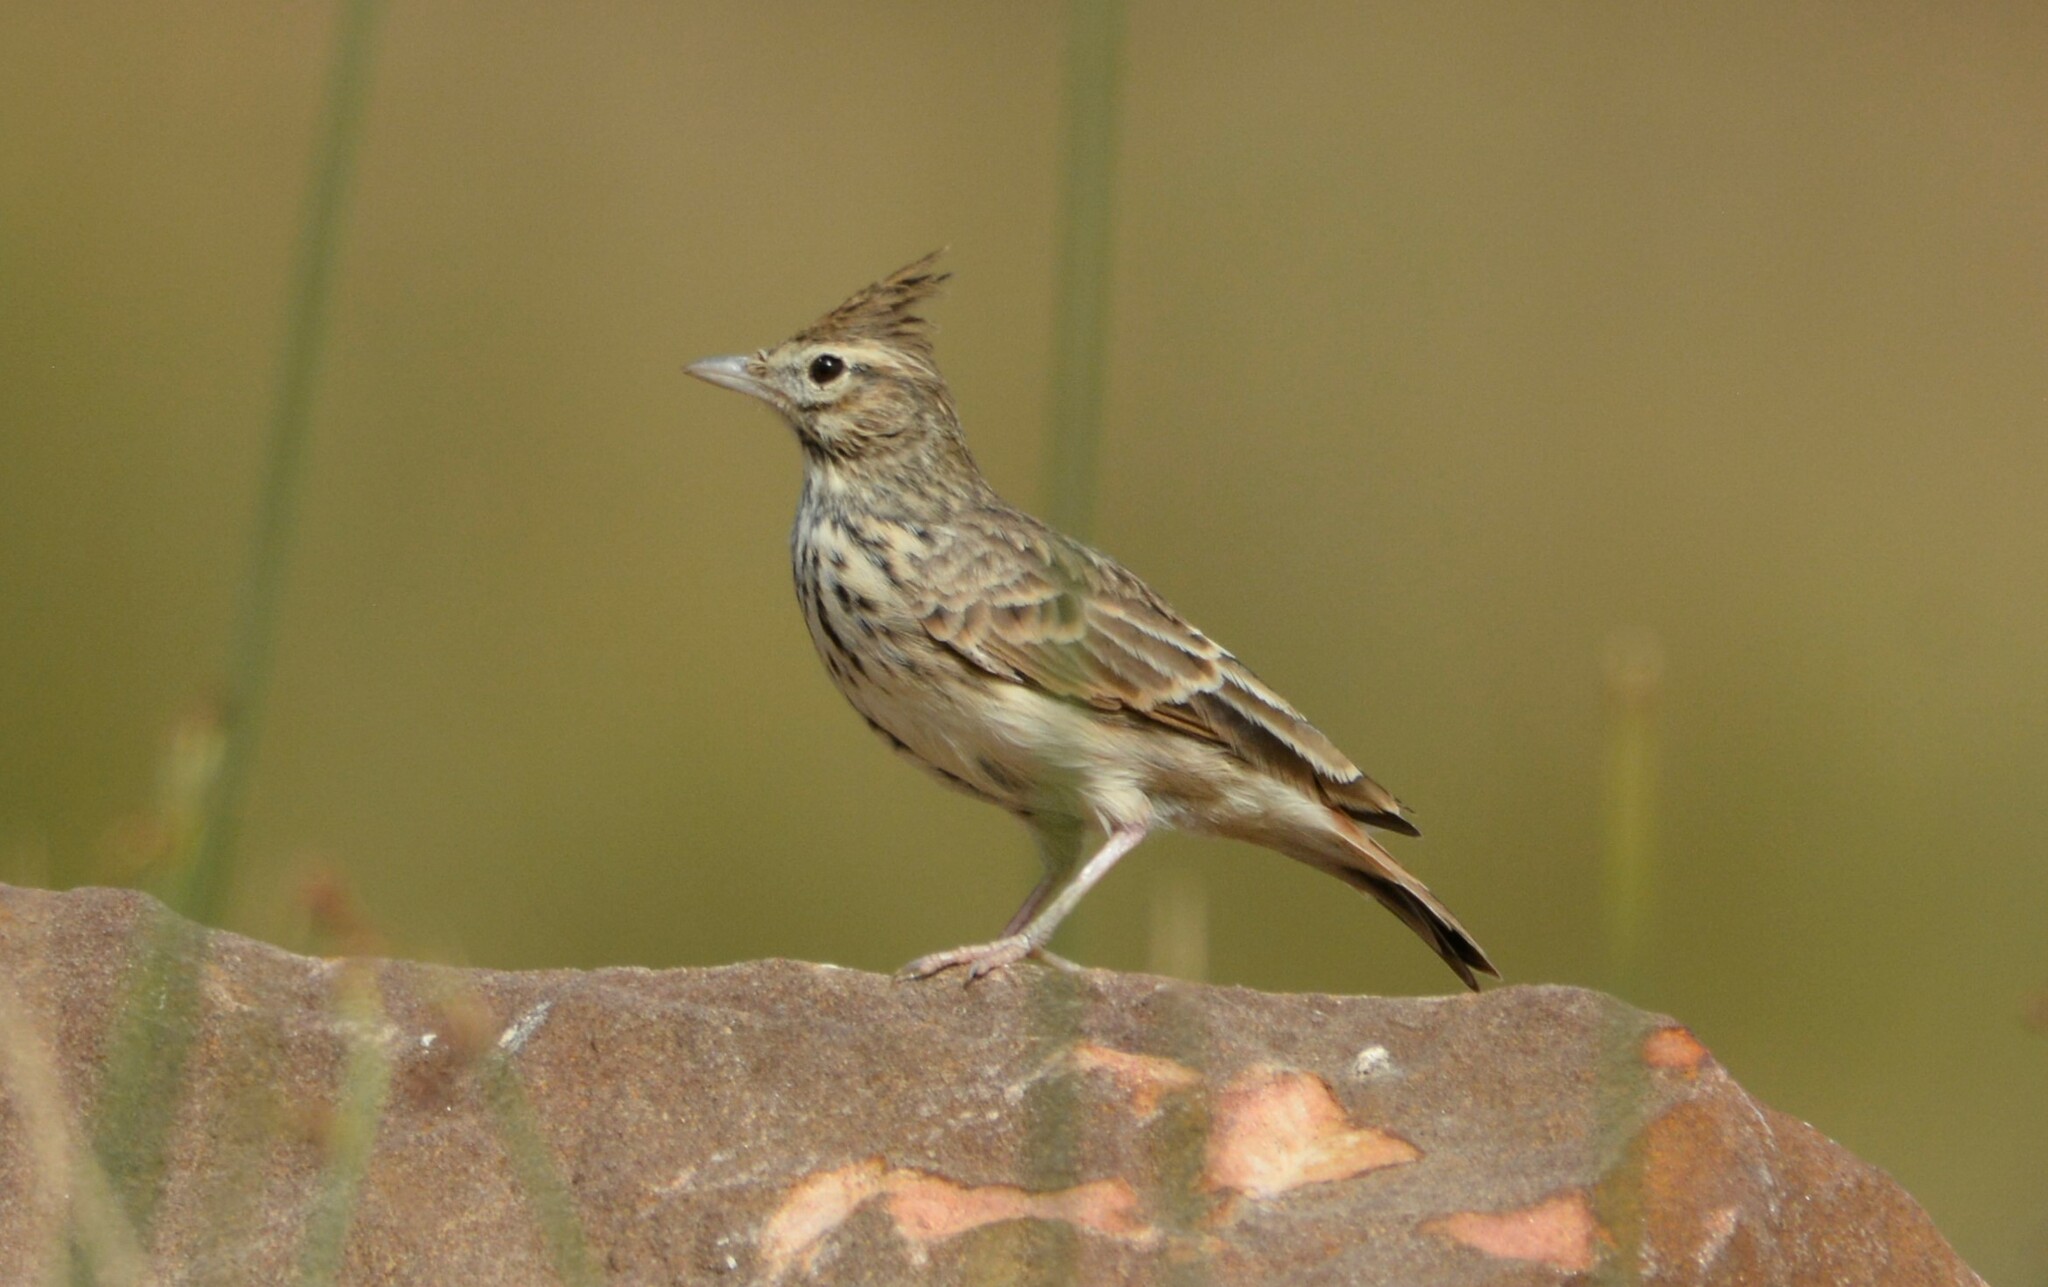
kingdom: Animalia
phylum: Chordata
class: Aves
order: Passeriformes
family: Alaudidae
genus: Galerida
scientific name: Galerida theklae
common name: Thekla lark
